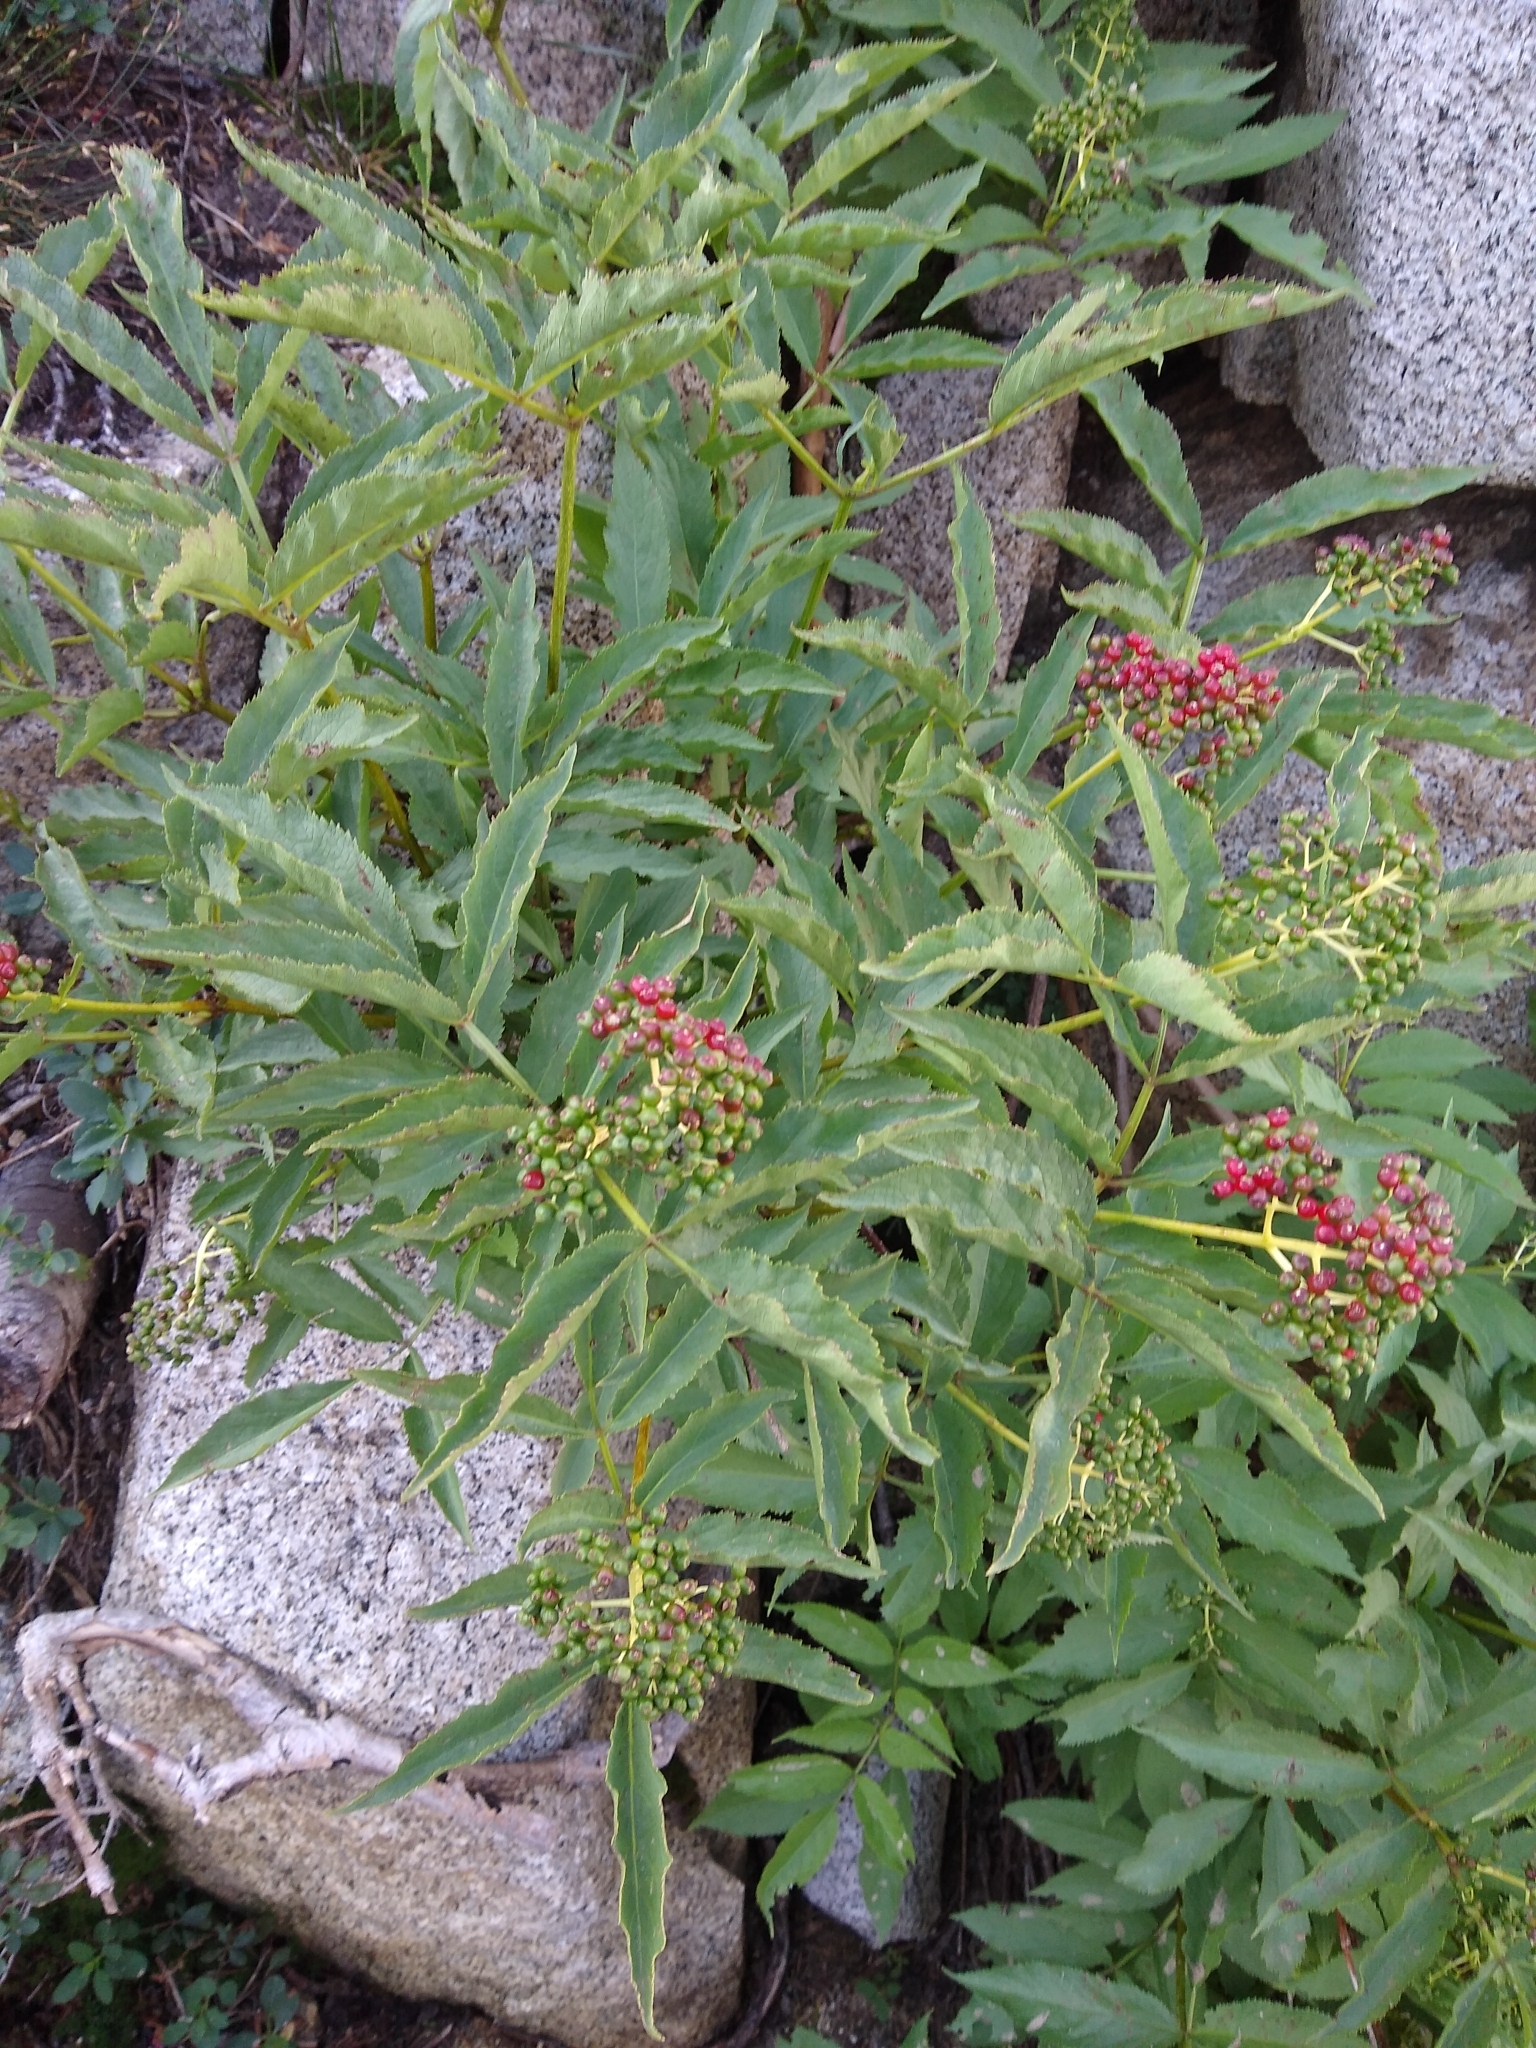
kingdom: Plantae
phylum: Tracheophyta
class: Magnoliopsida
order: Dipsacales
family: Viburnaceae
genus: Sambucus
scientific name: Sambucus racemosa
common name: Red-berried elder
